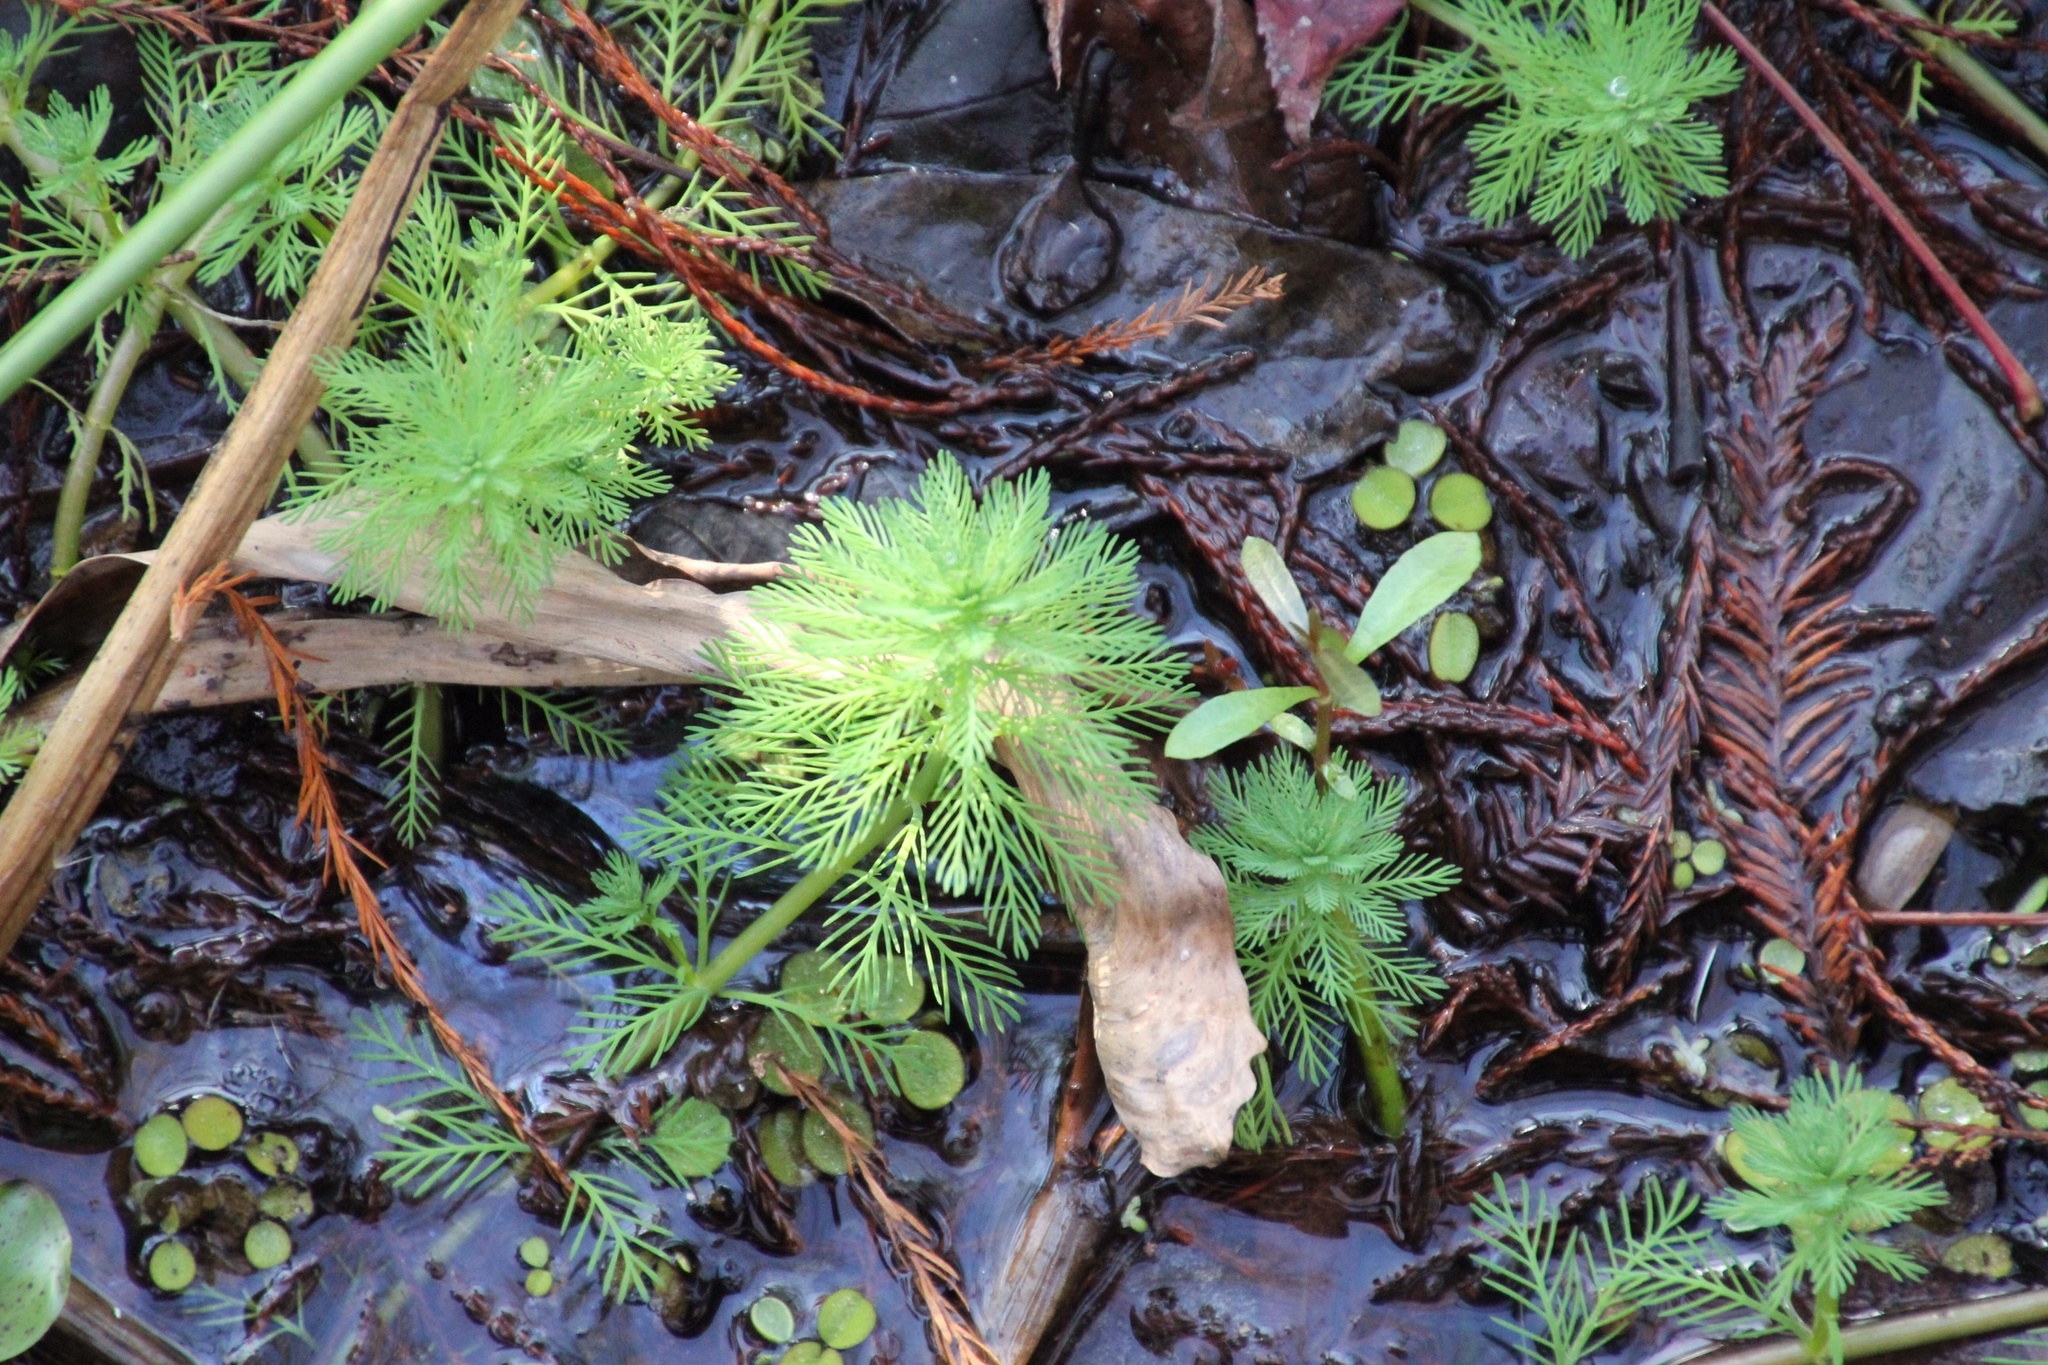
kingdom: Plantae
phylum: Tracheophyta
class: Magnoliopsida
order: Saxifragales
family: Haloragaceae
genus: Myriophyllum
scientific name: Myriophyllum aquaticum
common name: Parrot's feather
